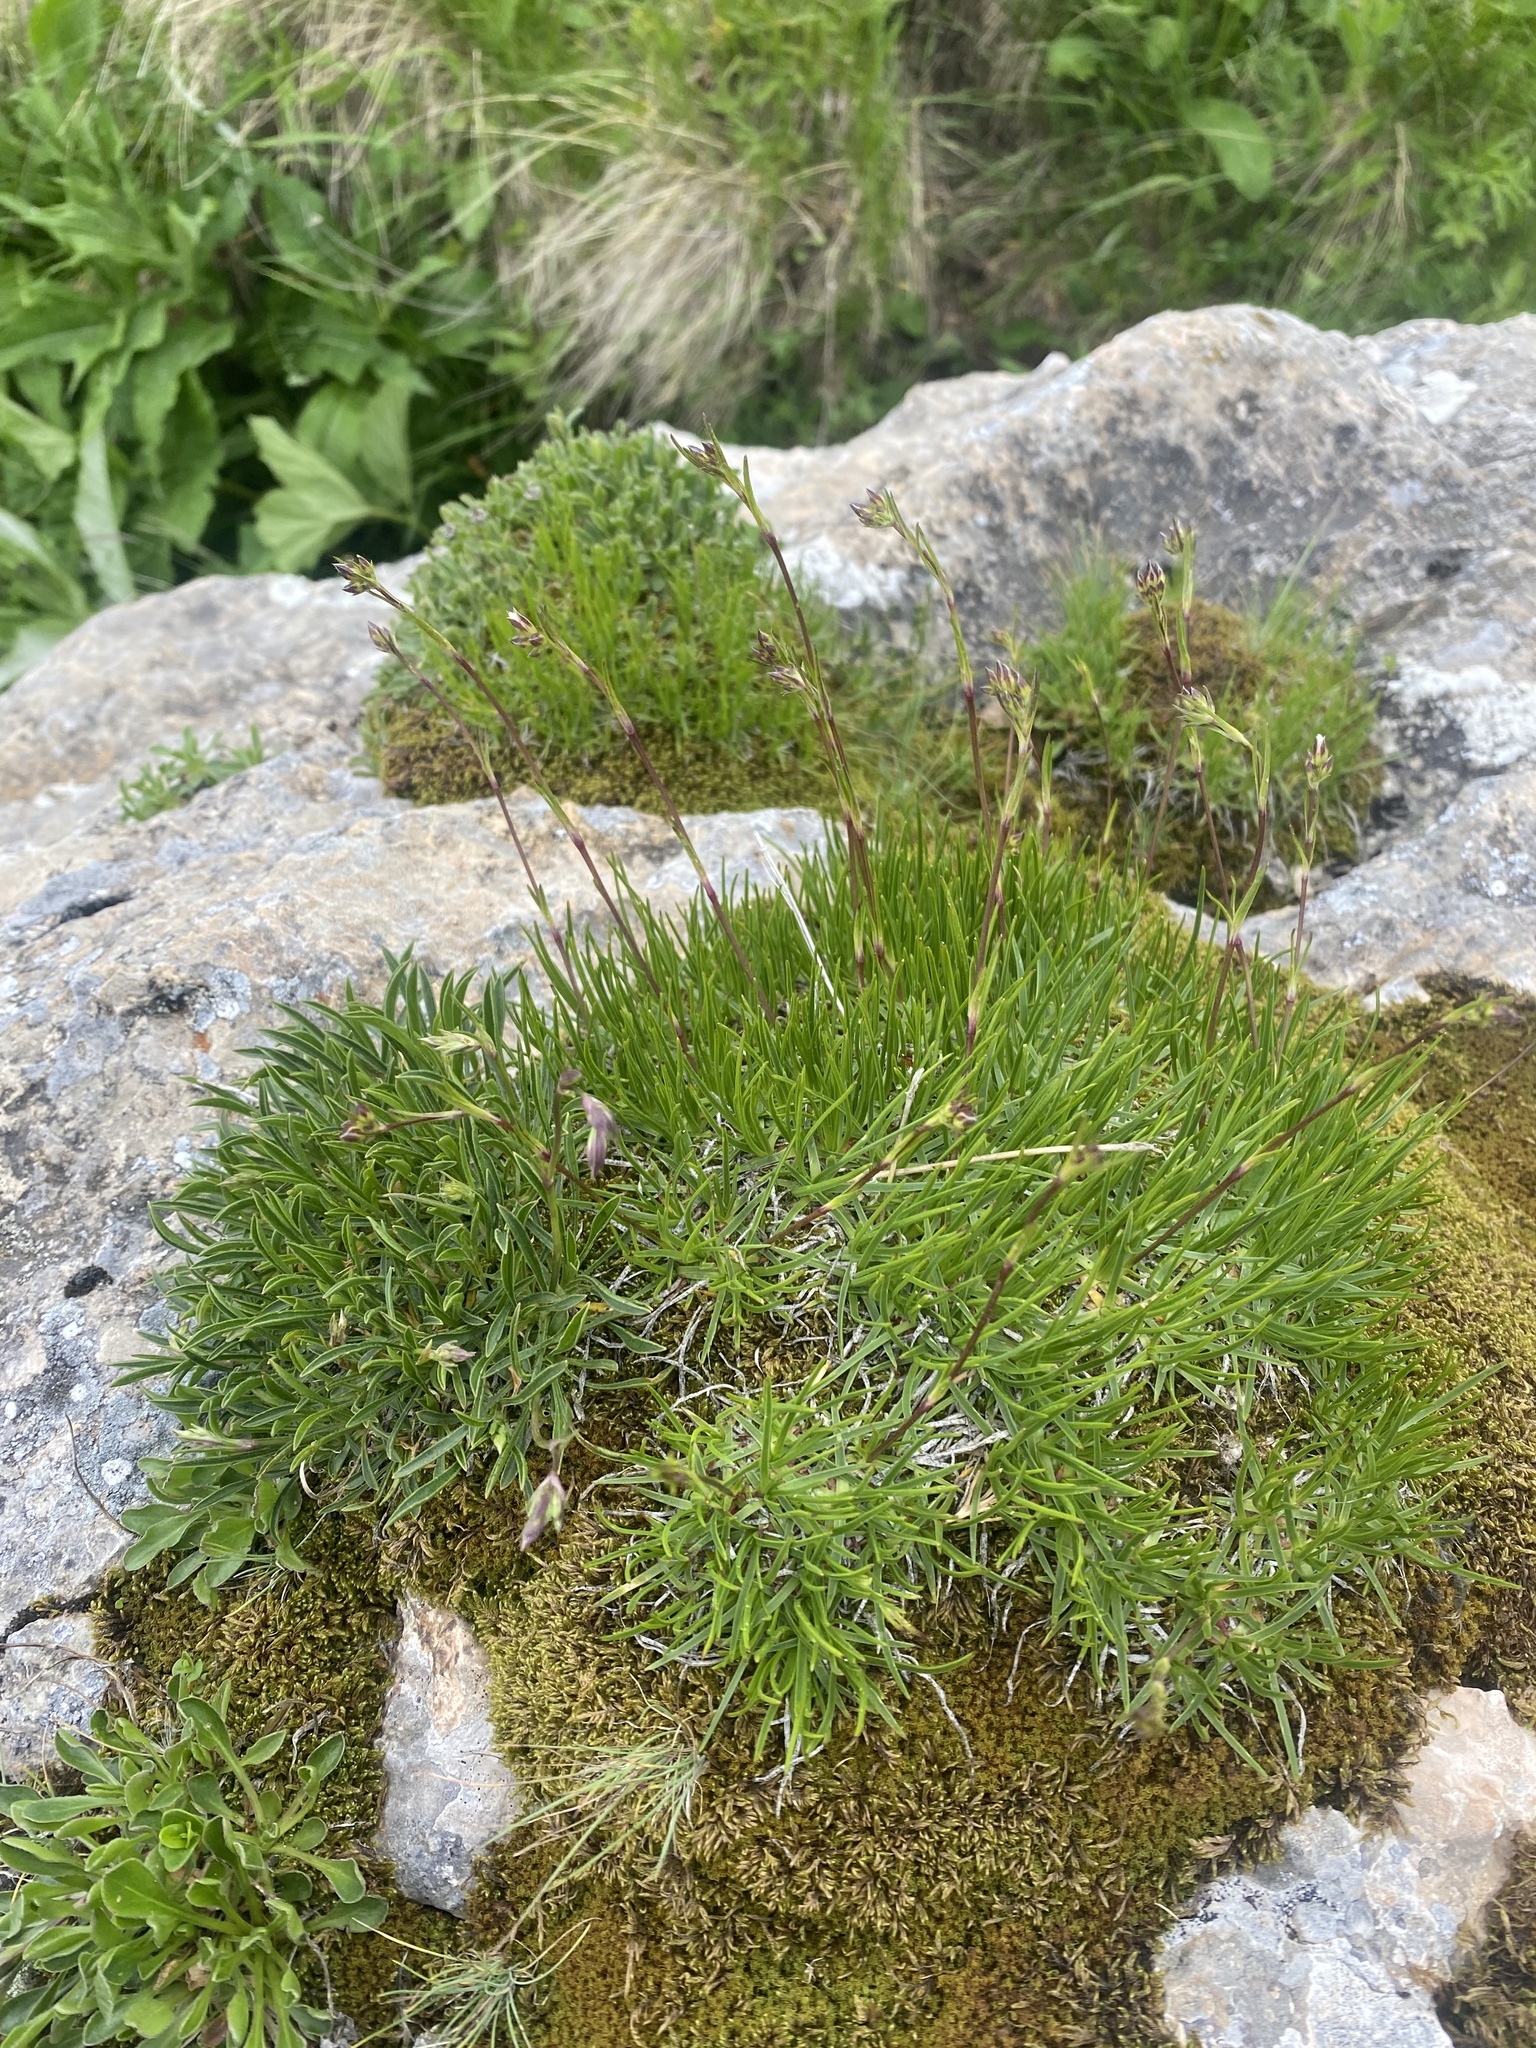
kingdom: Plantae
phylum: Tracheophyta
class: Magnoliopsida
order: Caryophyllales
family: Caryophyllaceae
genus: Gypsophila
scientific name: Gypsophila tenuifolia
